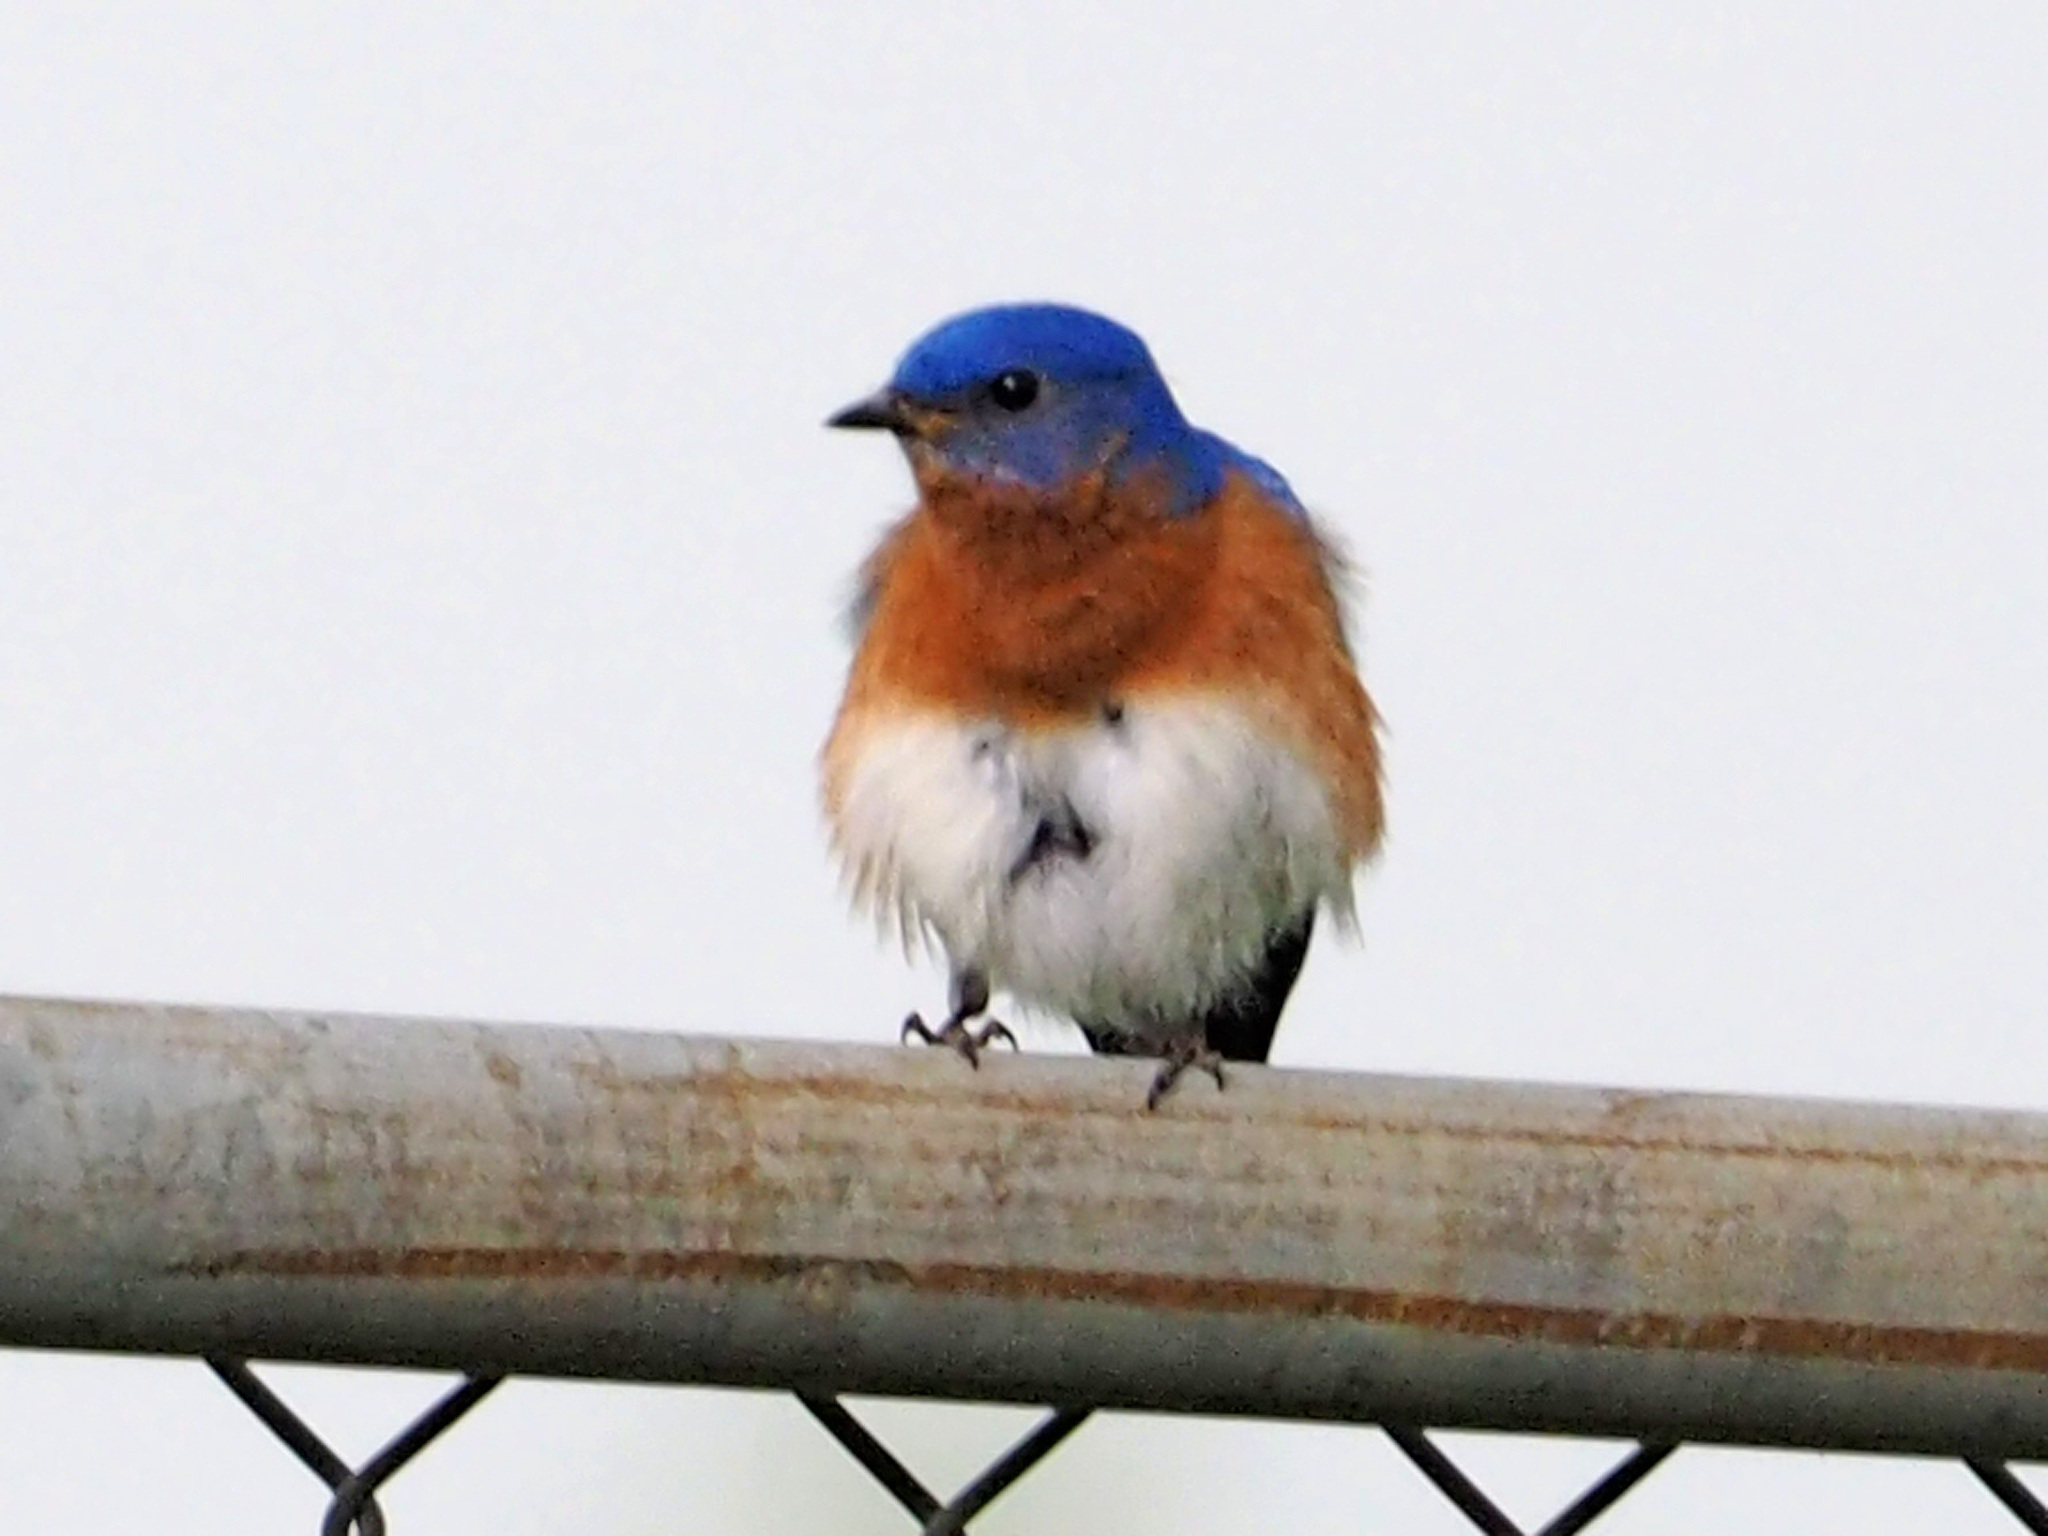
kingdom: Animalia
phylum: Chordata
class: Aves
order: Passeriformes
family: Turdidae
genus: Sialia
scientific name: Sialia sialis
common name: Eastern bluebird
